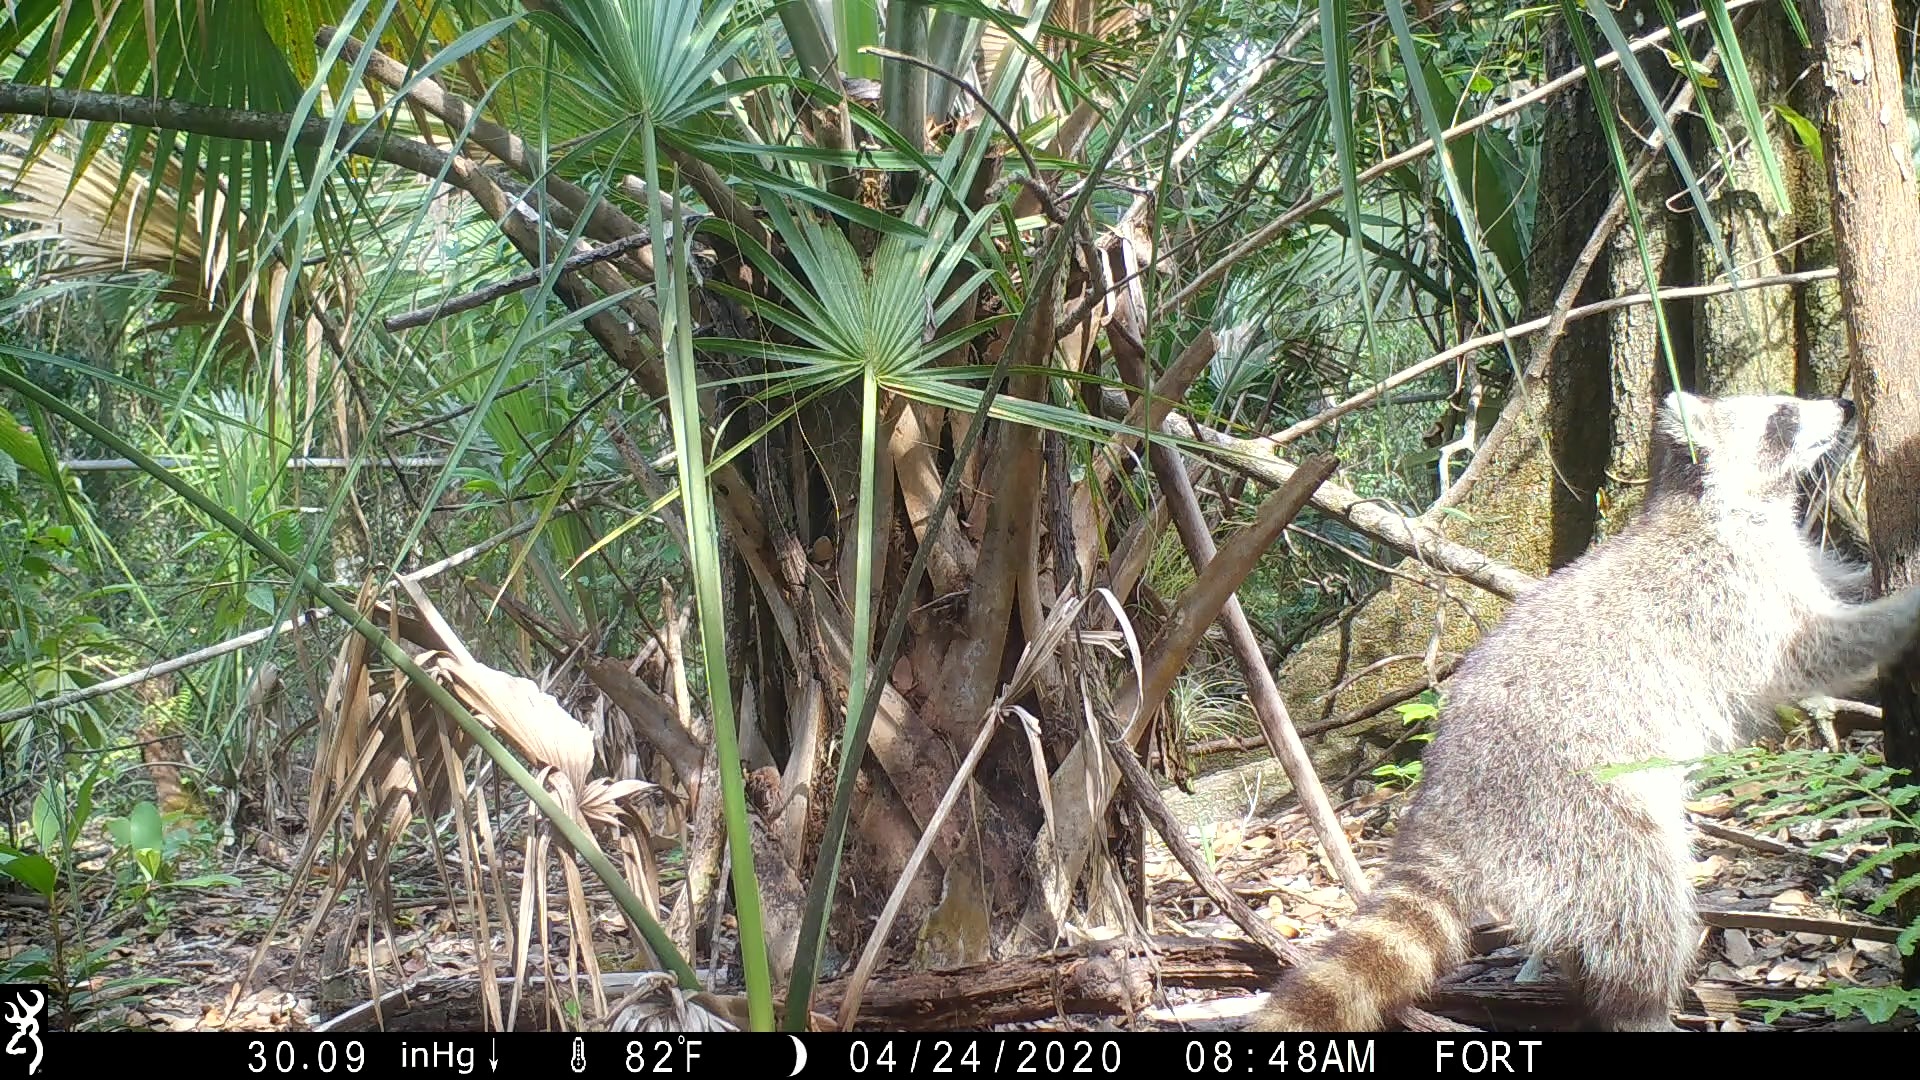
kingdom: Animalia
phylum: Chordata
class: Mammalia
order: Carnivora
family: Procyonidae
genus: Procyon
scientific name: Procyon lotor
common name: Raccoon
